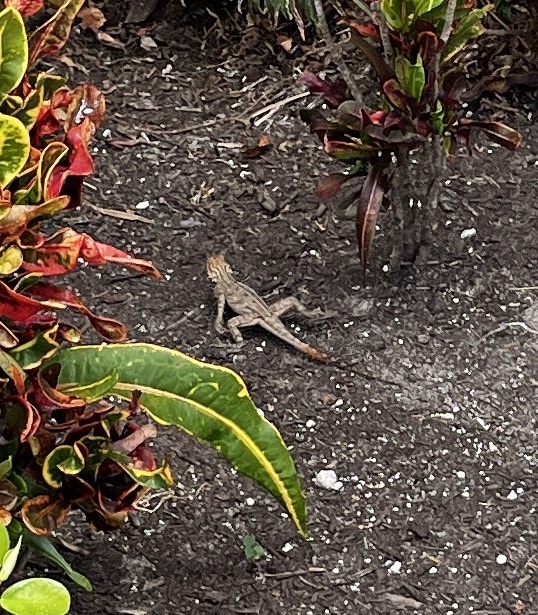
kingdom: Animalia
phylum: Chordata
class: Squamata
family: Agamidae
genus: Agama
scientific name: Agama picticauda
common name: Red-headed agama
